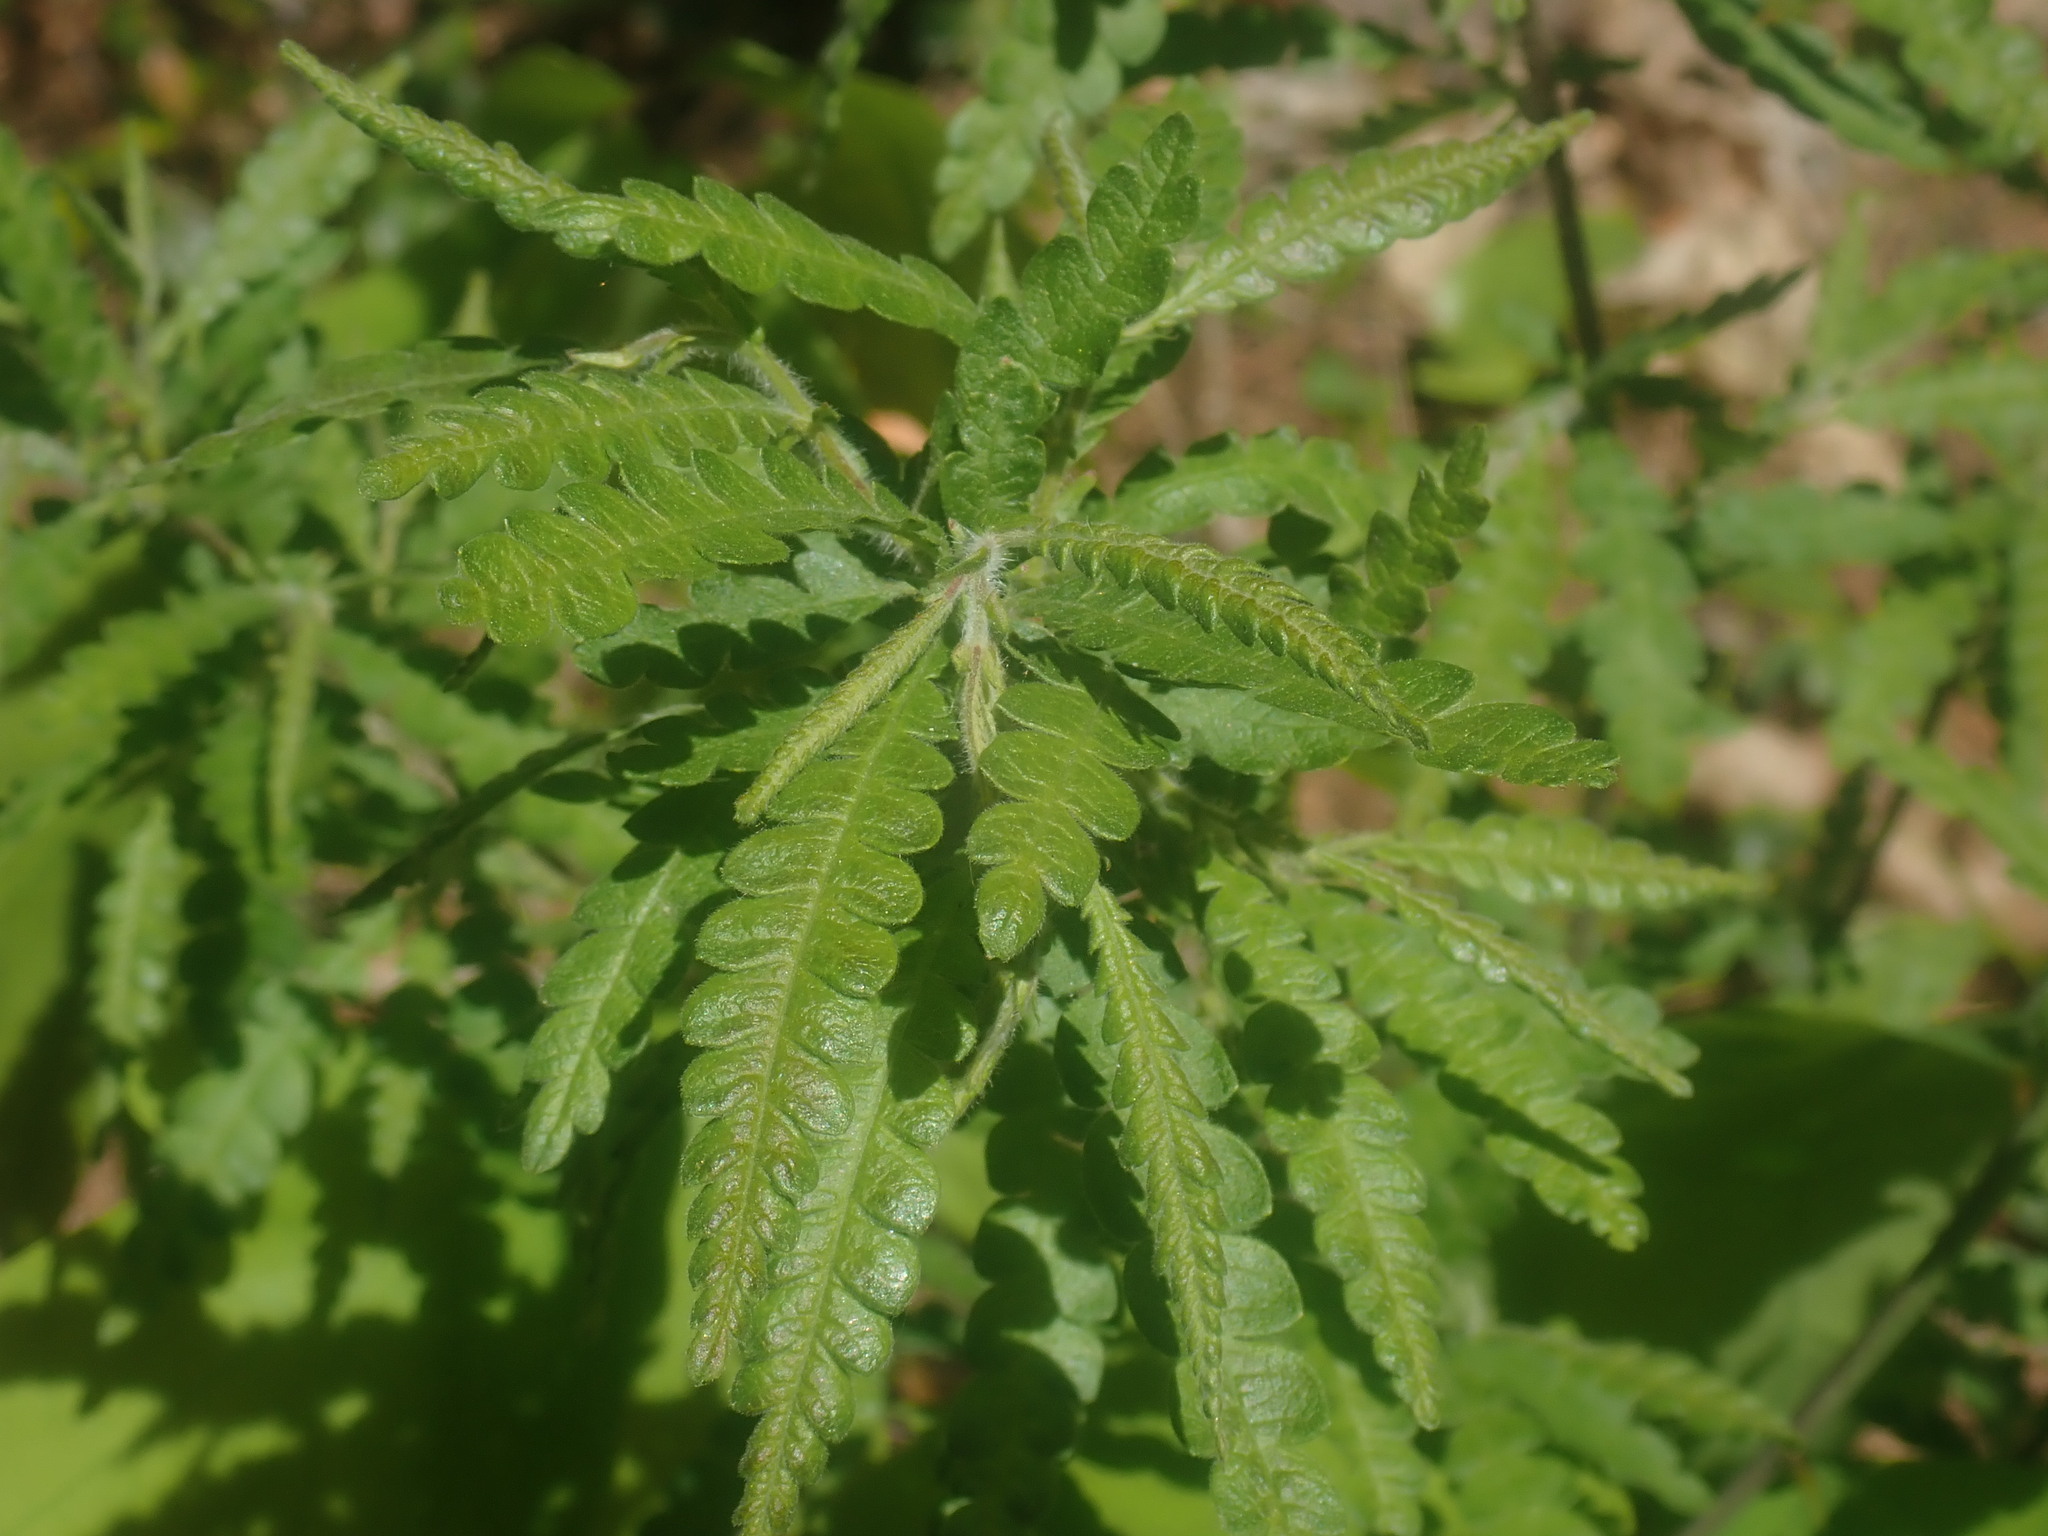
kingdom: Plantae
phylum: Tracheophyta
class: Magnoliopsida
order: Fagales
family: Myricaceae
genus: Comptonia
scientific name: Comptonia peregrina
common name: Sweet-fern
